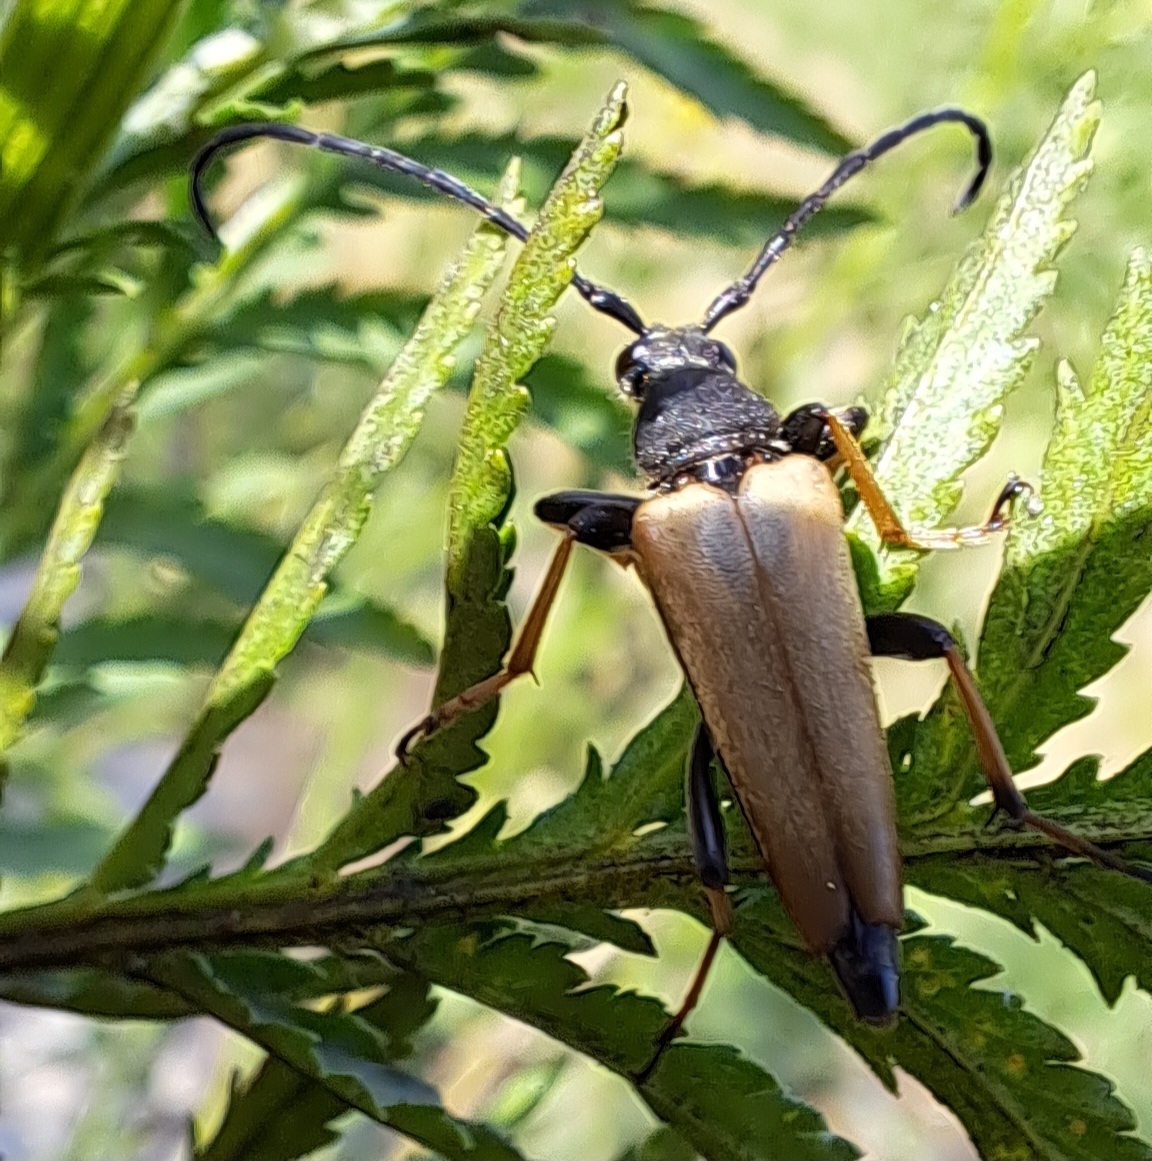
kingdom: Animalia
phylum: Arthropoda
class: Insecta
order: Coleoptera
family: Cerambycidae
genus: Stictoleptura
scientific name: Stictoleptura rubra
